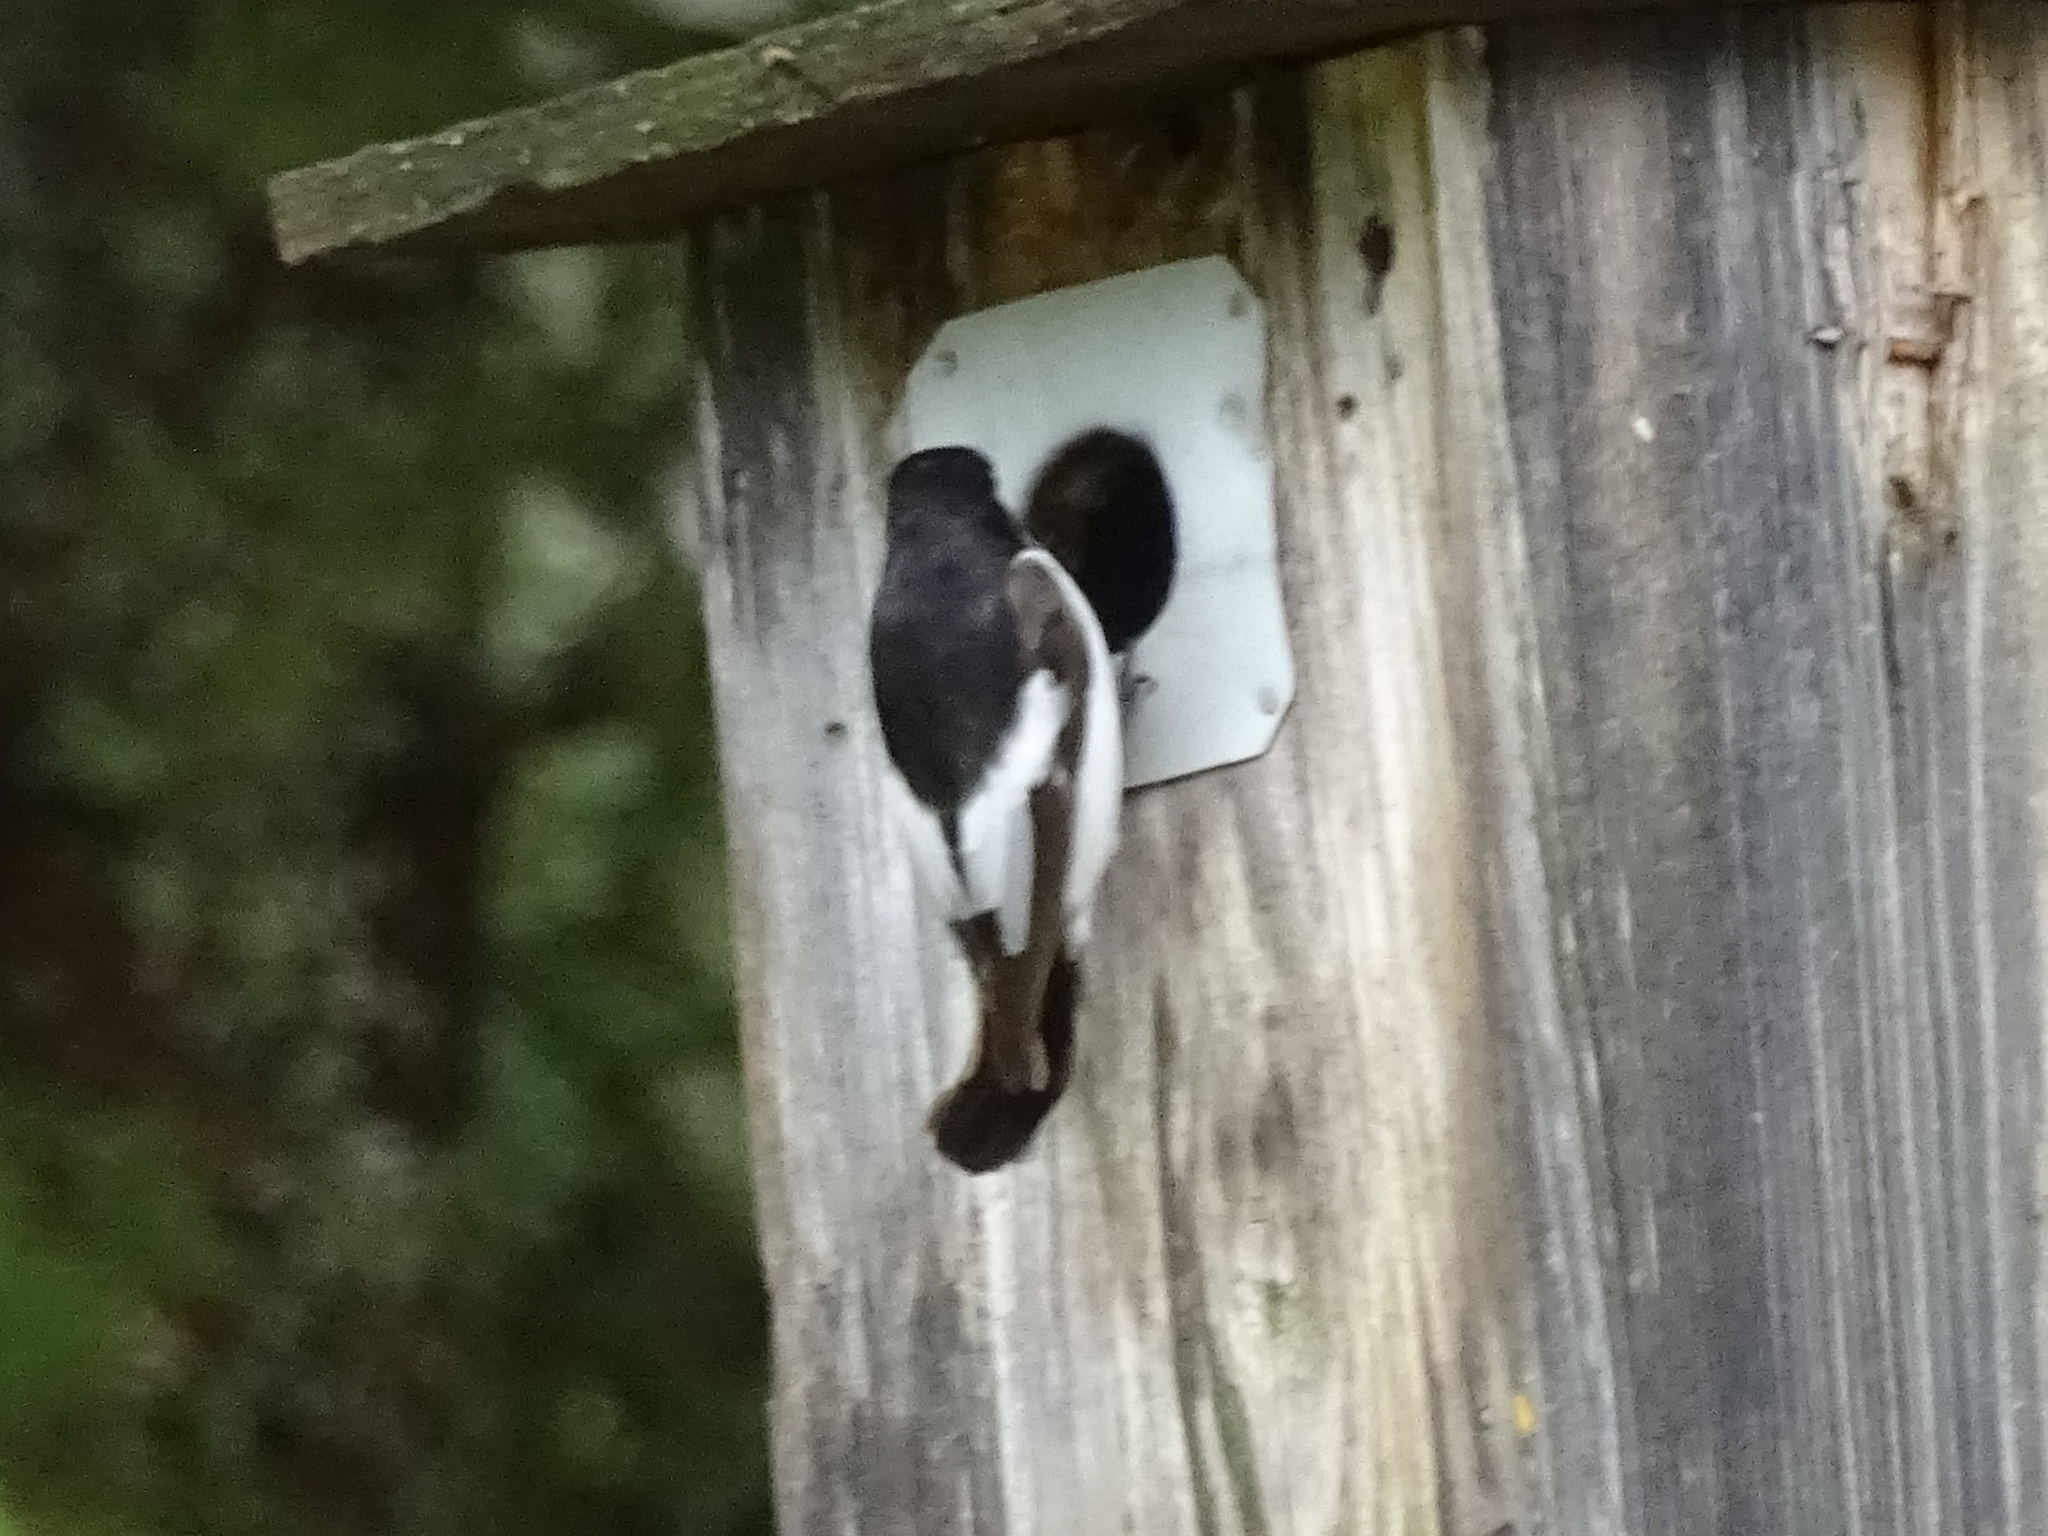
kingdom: Animalia
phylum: Chordata
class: Aves
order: Passeriformes
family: Muscicapidae
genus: Ficedula
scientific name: Ficedula hypoleuca
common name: European pied flycatcher
